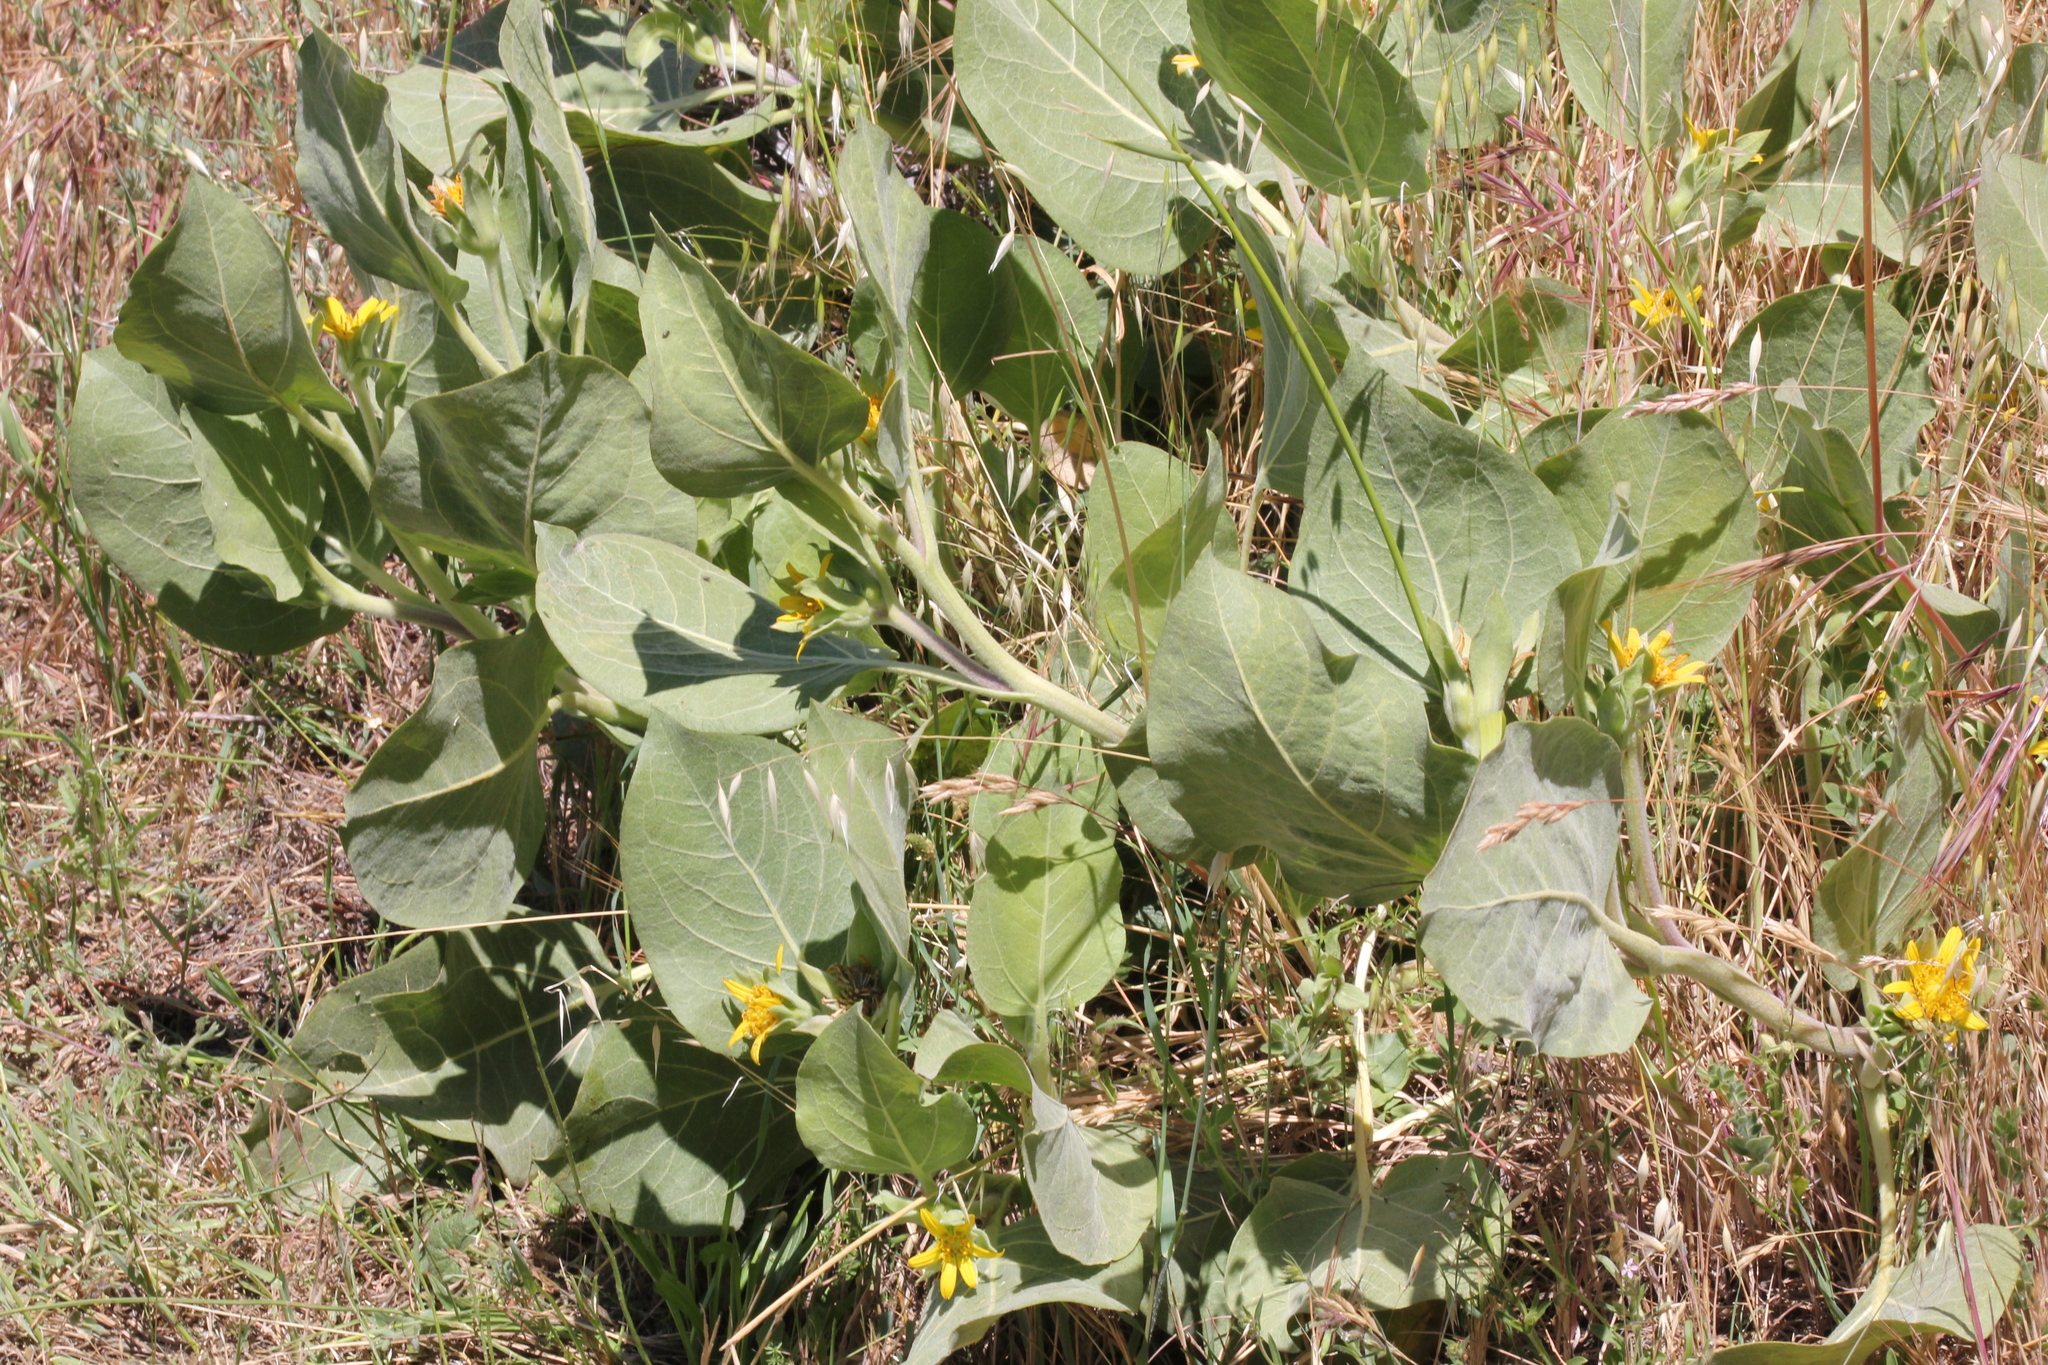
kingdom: Plantae
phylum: Tracheophyta
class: Magnoliopsida
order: Asterales
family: Asteraceae
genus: Agnorhiza
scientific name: Agnorhiza ovata
